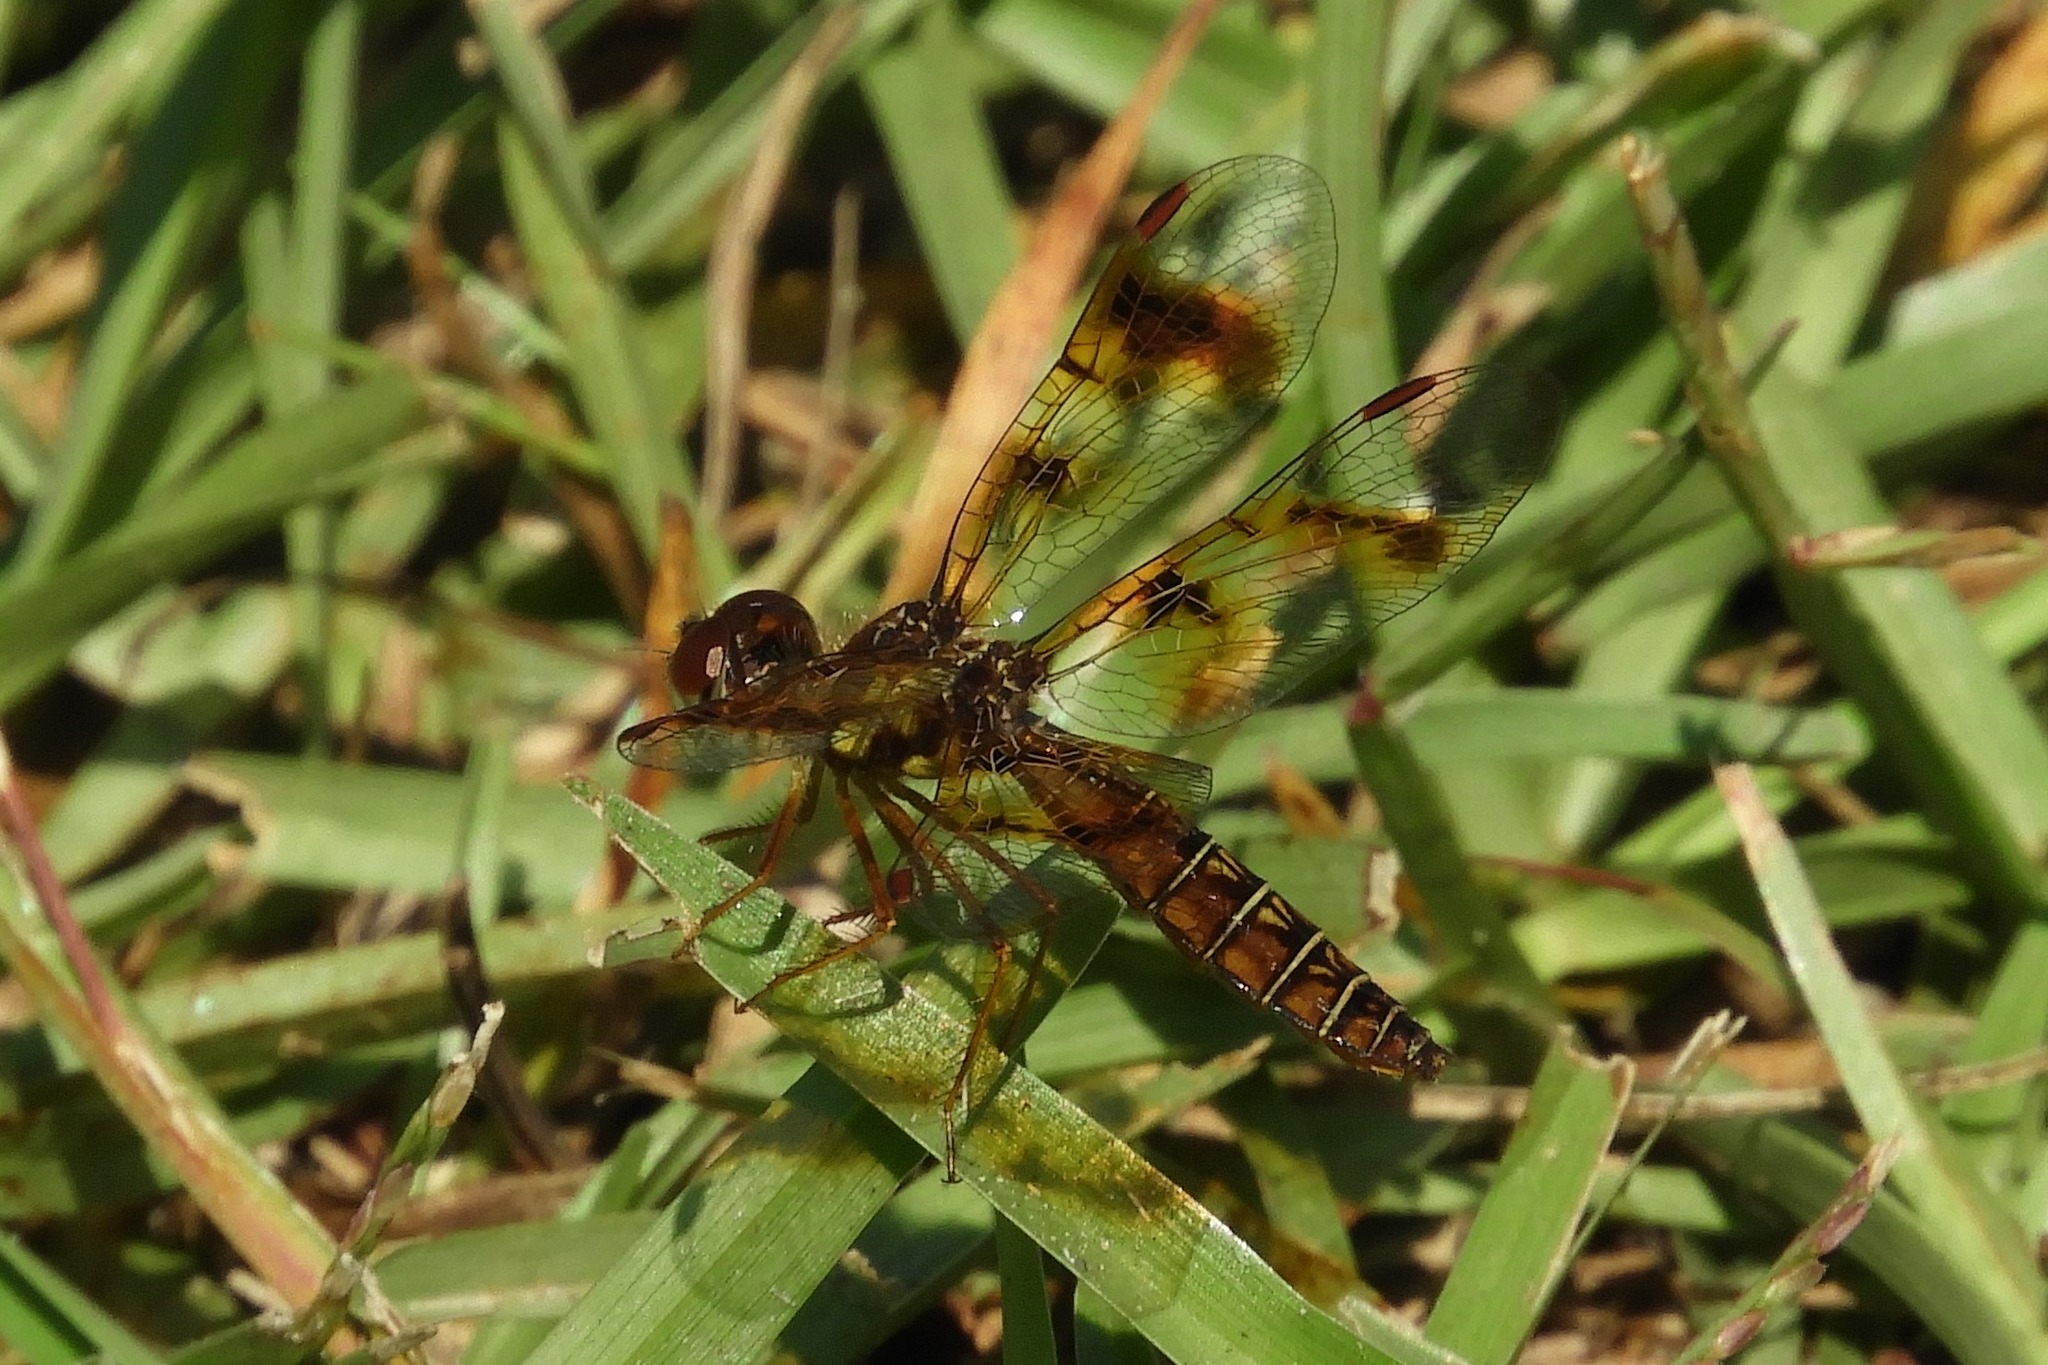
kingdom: Animalia
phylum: Arthropoda
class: Insecta
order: Odonata
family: Libellulidae
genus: Perithemis
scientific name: Perithemis tenera
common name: Eastern amberwing
